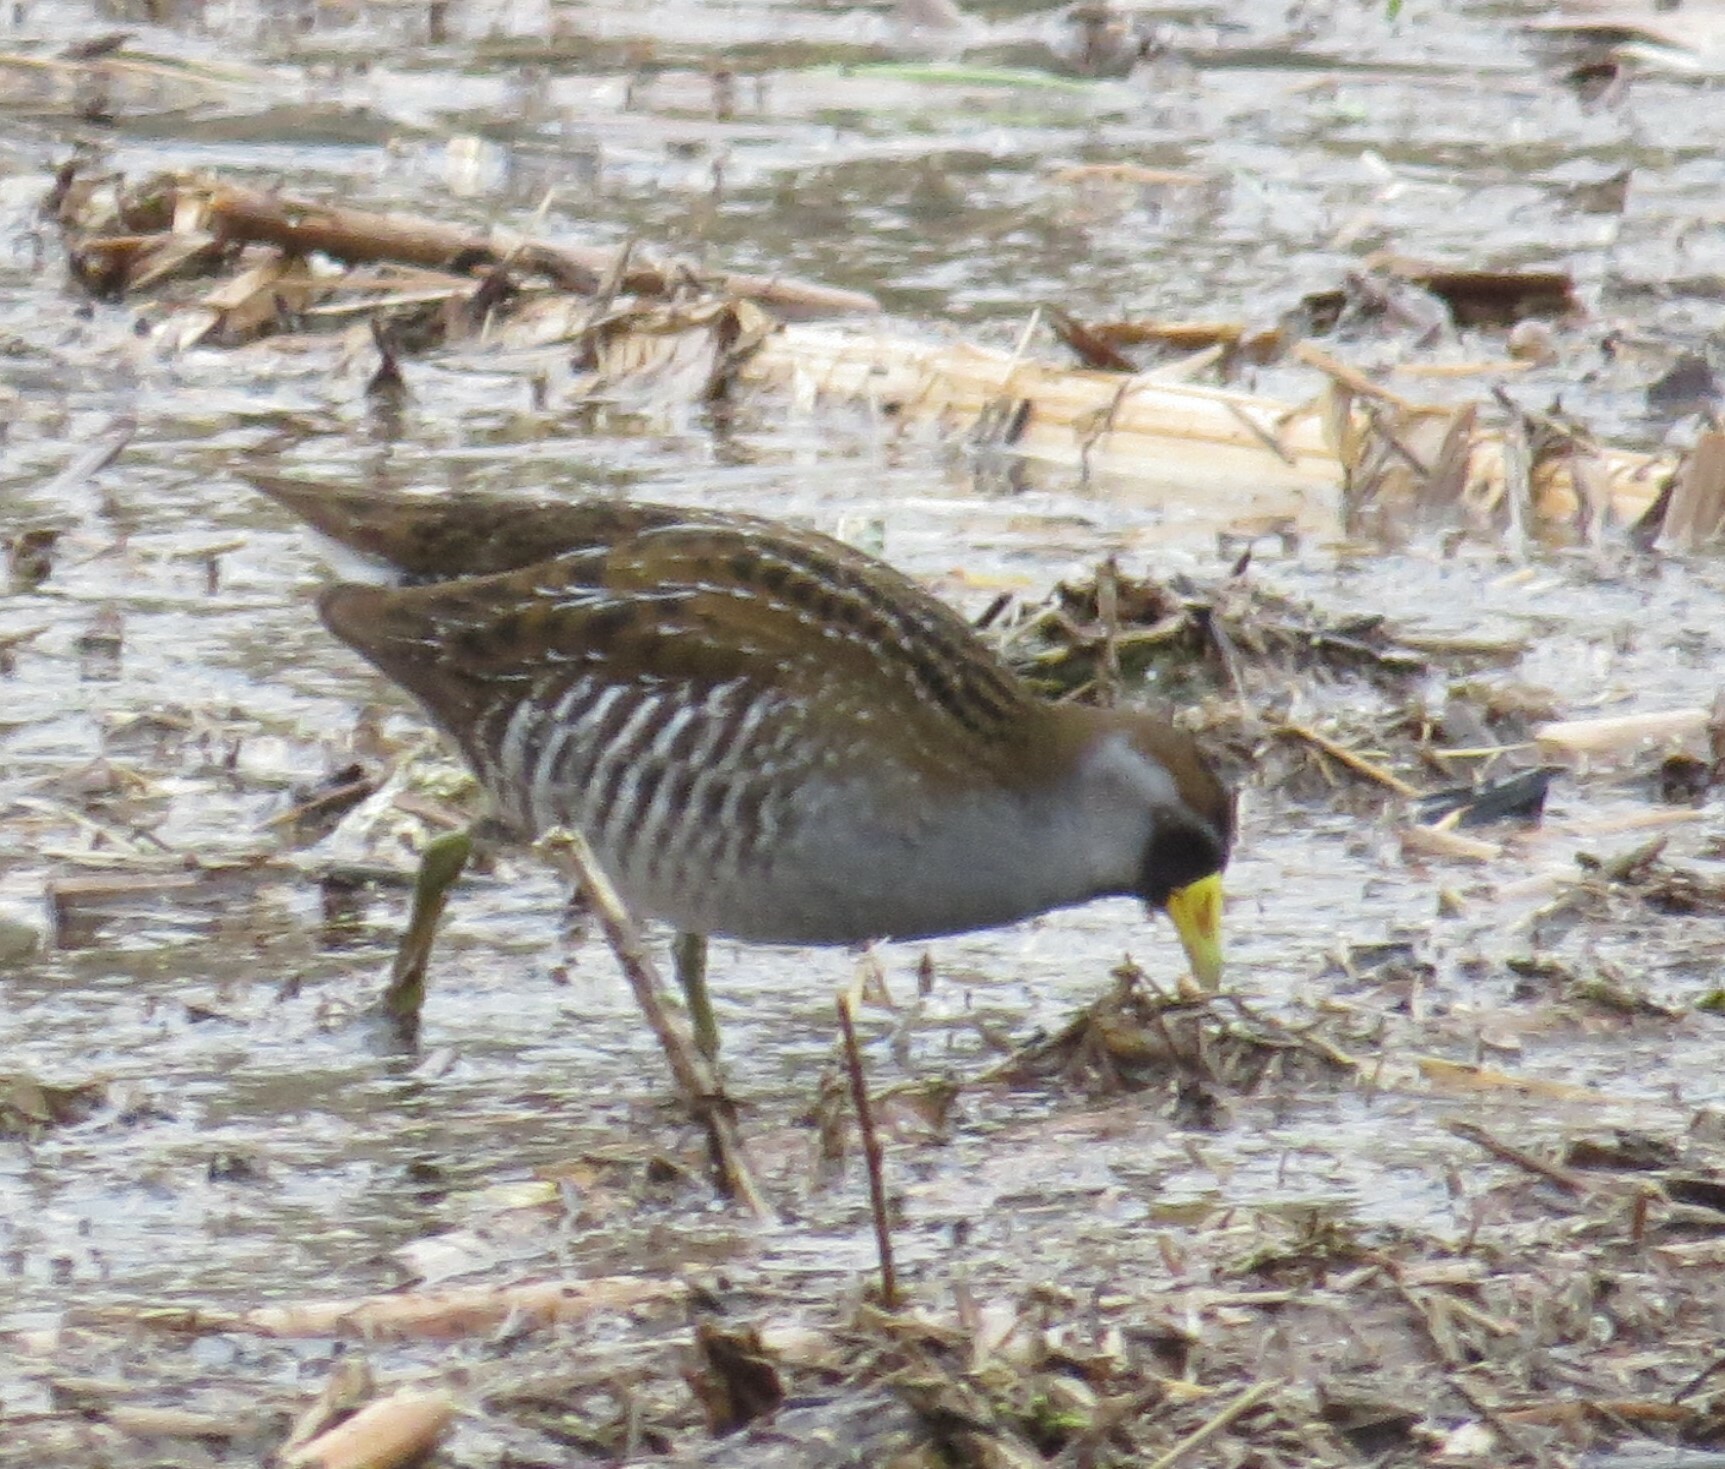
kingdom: Animalia
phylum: Chordata
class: Aves
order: Gruiformes
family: Rallidae
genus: Porzana
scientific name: Porzana carolina
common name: Sora
